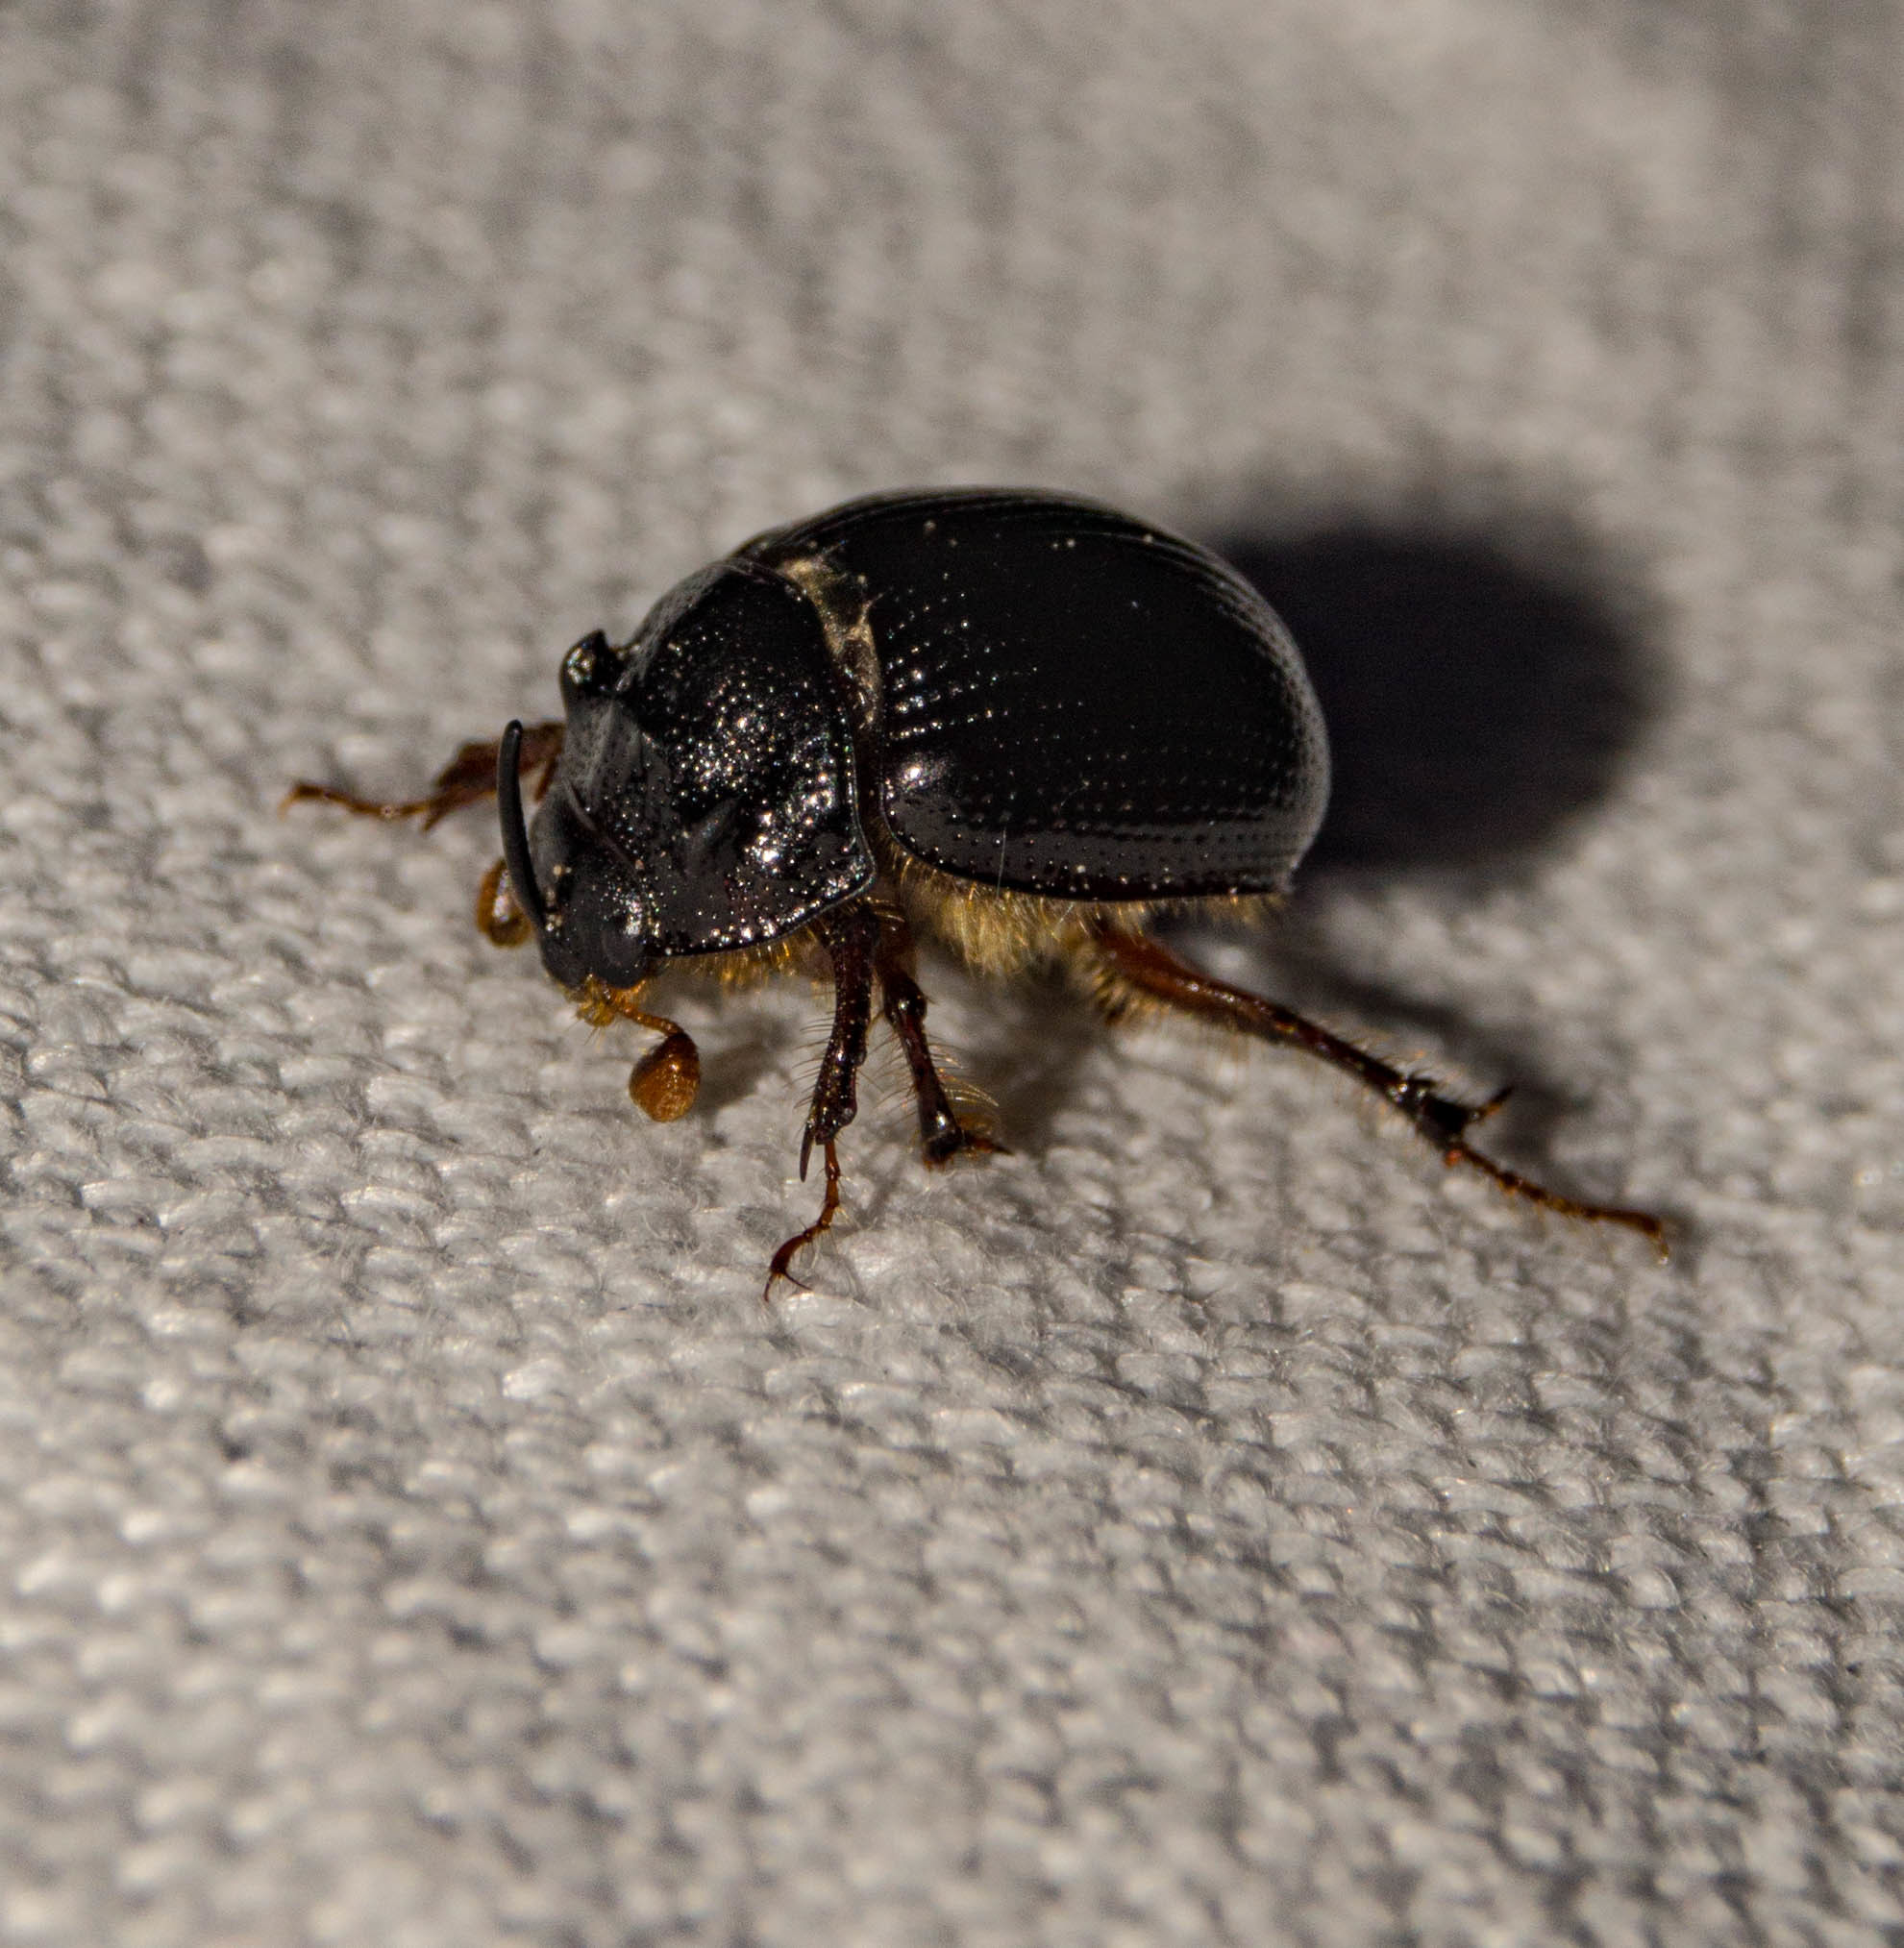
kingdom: Animalia
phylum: Arthropoda
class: Insecta
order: Coleoptera
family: Geotrupidae
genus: Odonteus
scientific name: Odonteus armiger
